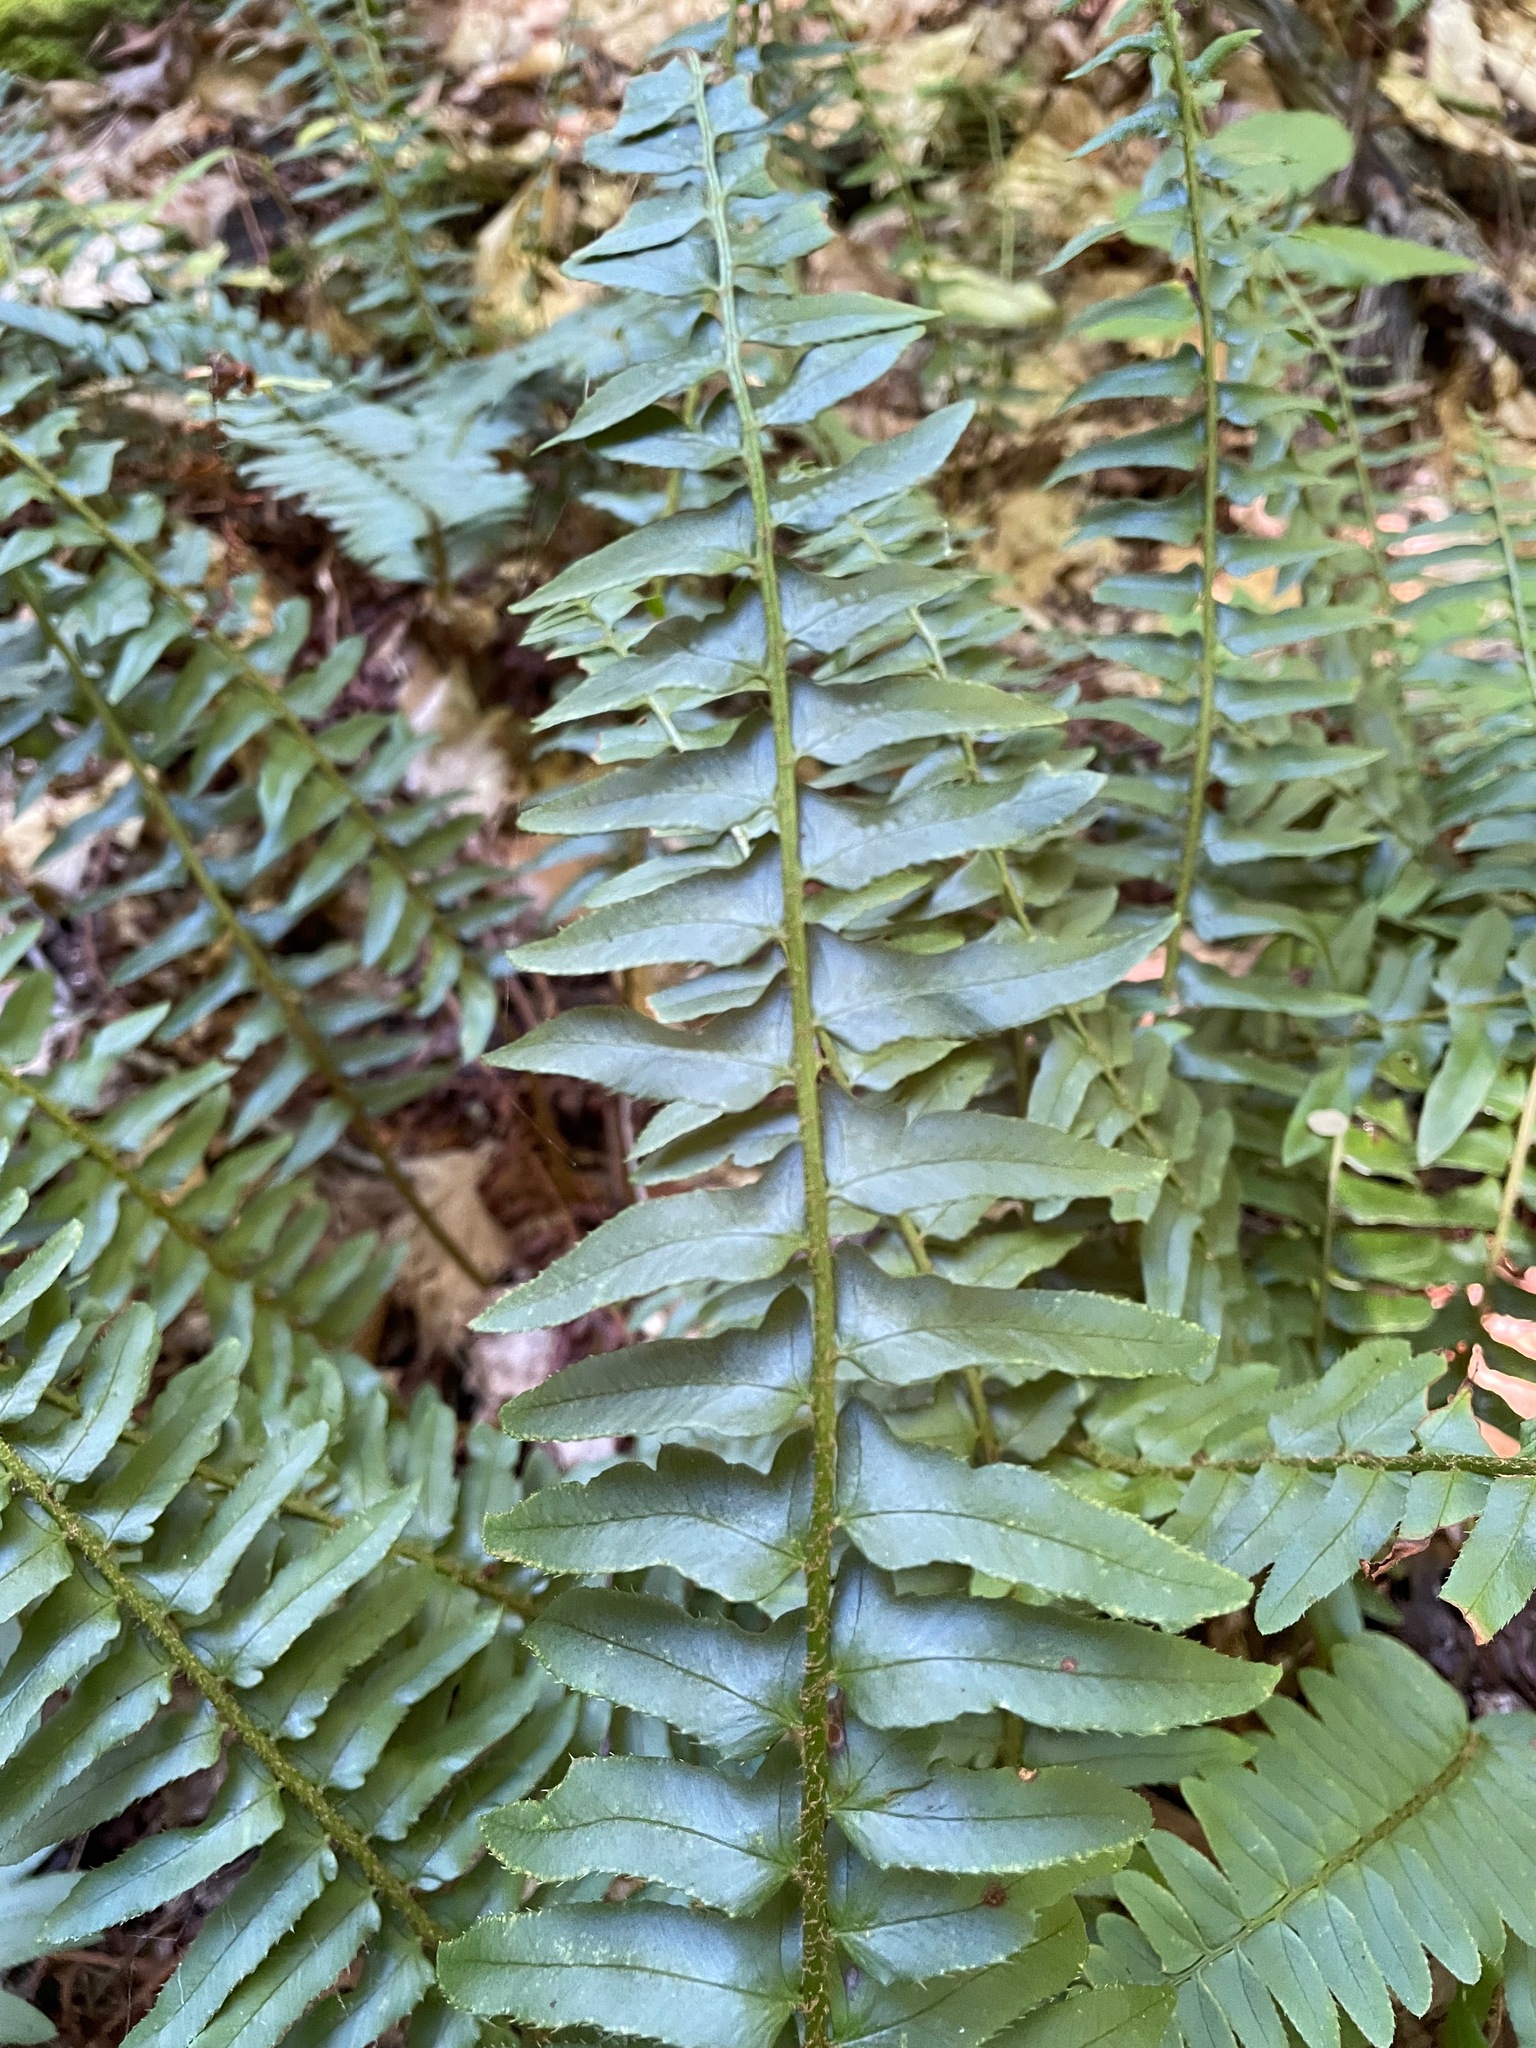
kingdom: Plantae
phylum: Tracheophyta
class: Polypodiopsida
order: Polypodiales
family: Dryopteridaceae
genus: Polystichum
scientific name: Polystichum acrostichoides
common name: Christmas fern
